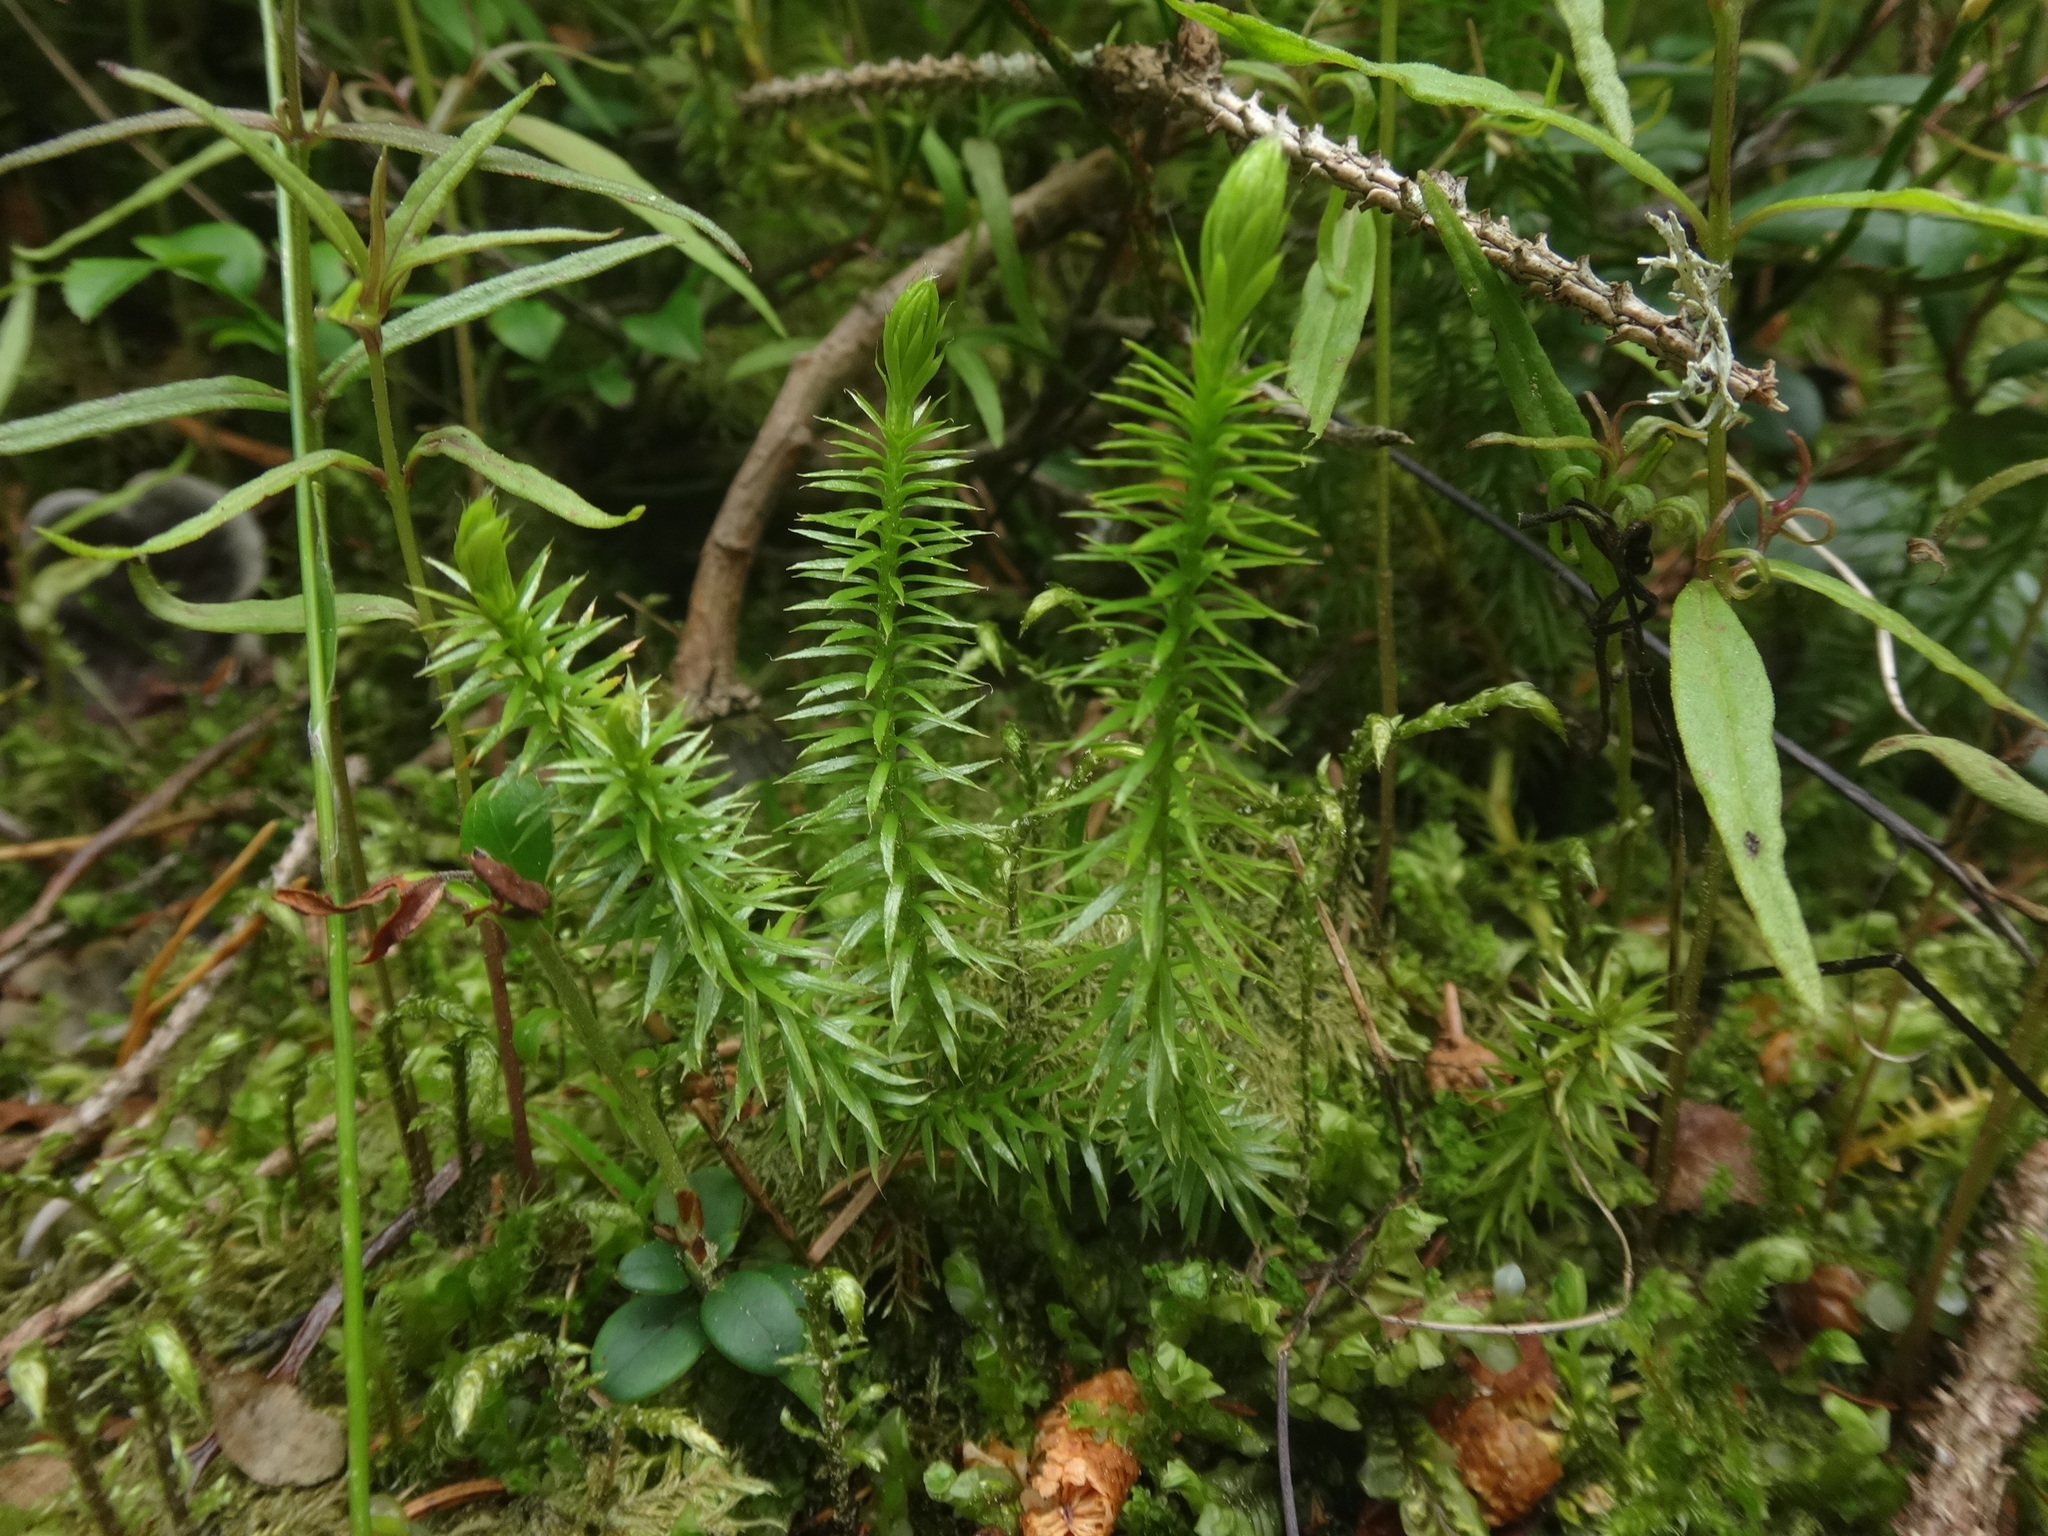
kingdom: Plantae
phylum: Tracheophyta
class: Lycopodiopsida
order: Lycopodiales
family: Lycopodiaceae
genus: Spinulum
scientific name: Spinulum annotinum
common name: Interrupted club-moss
